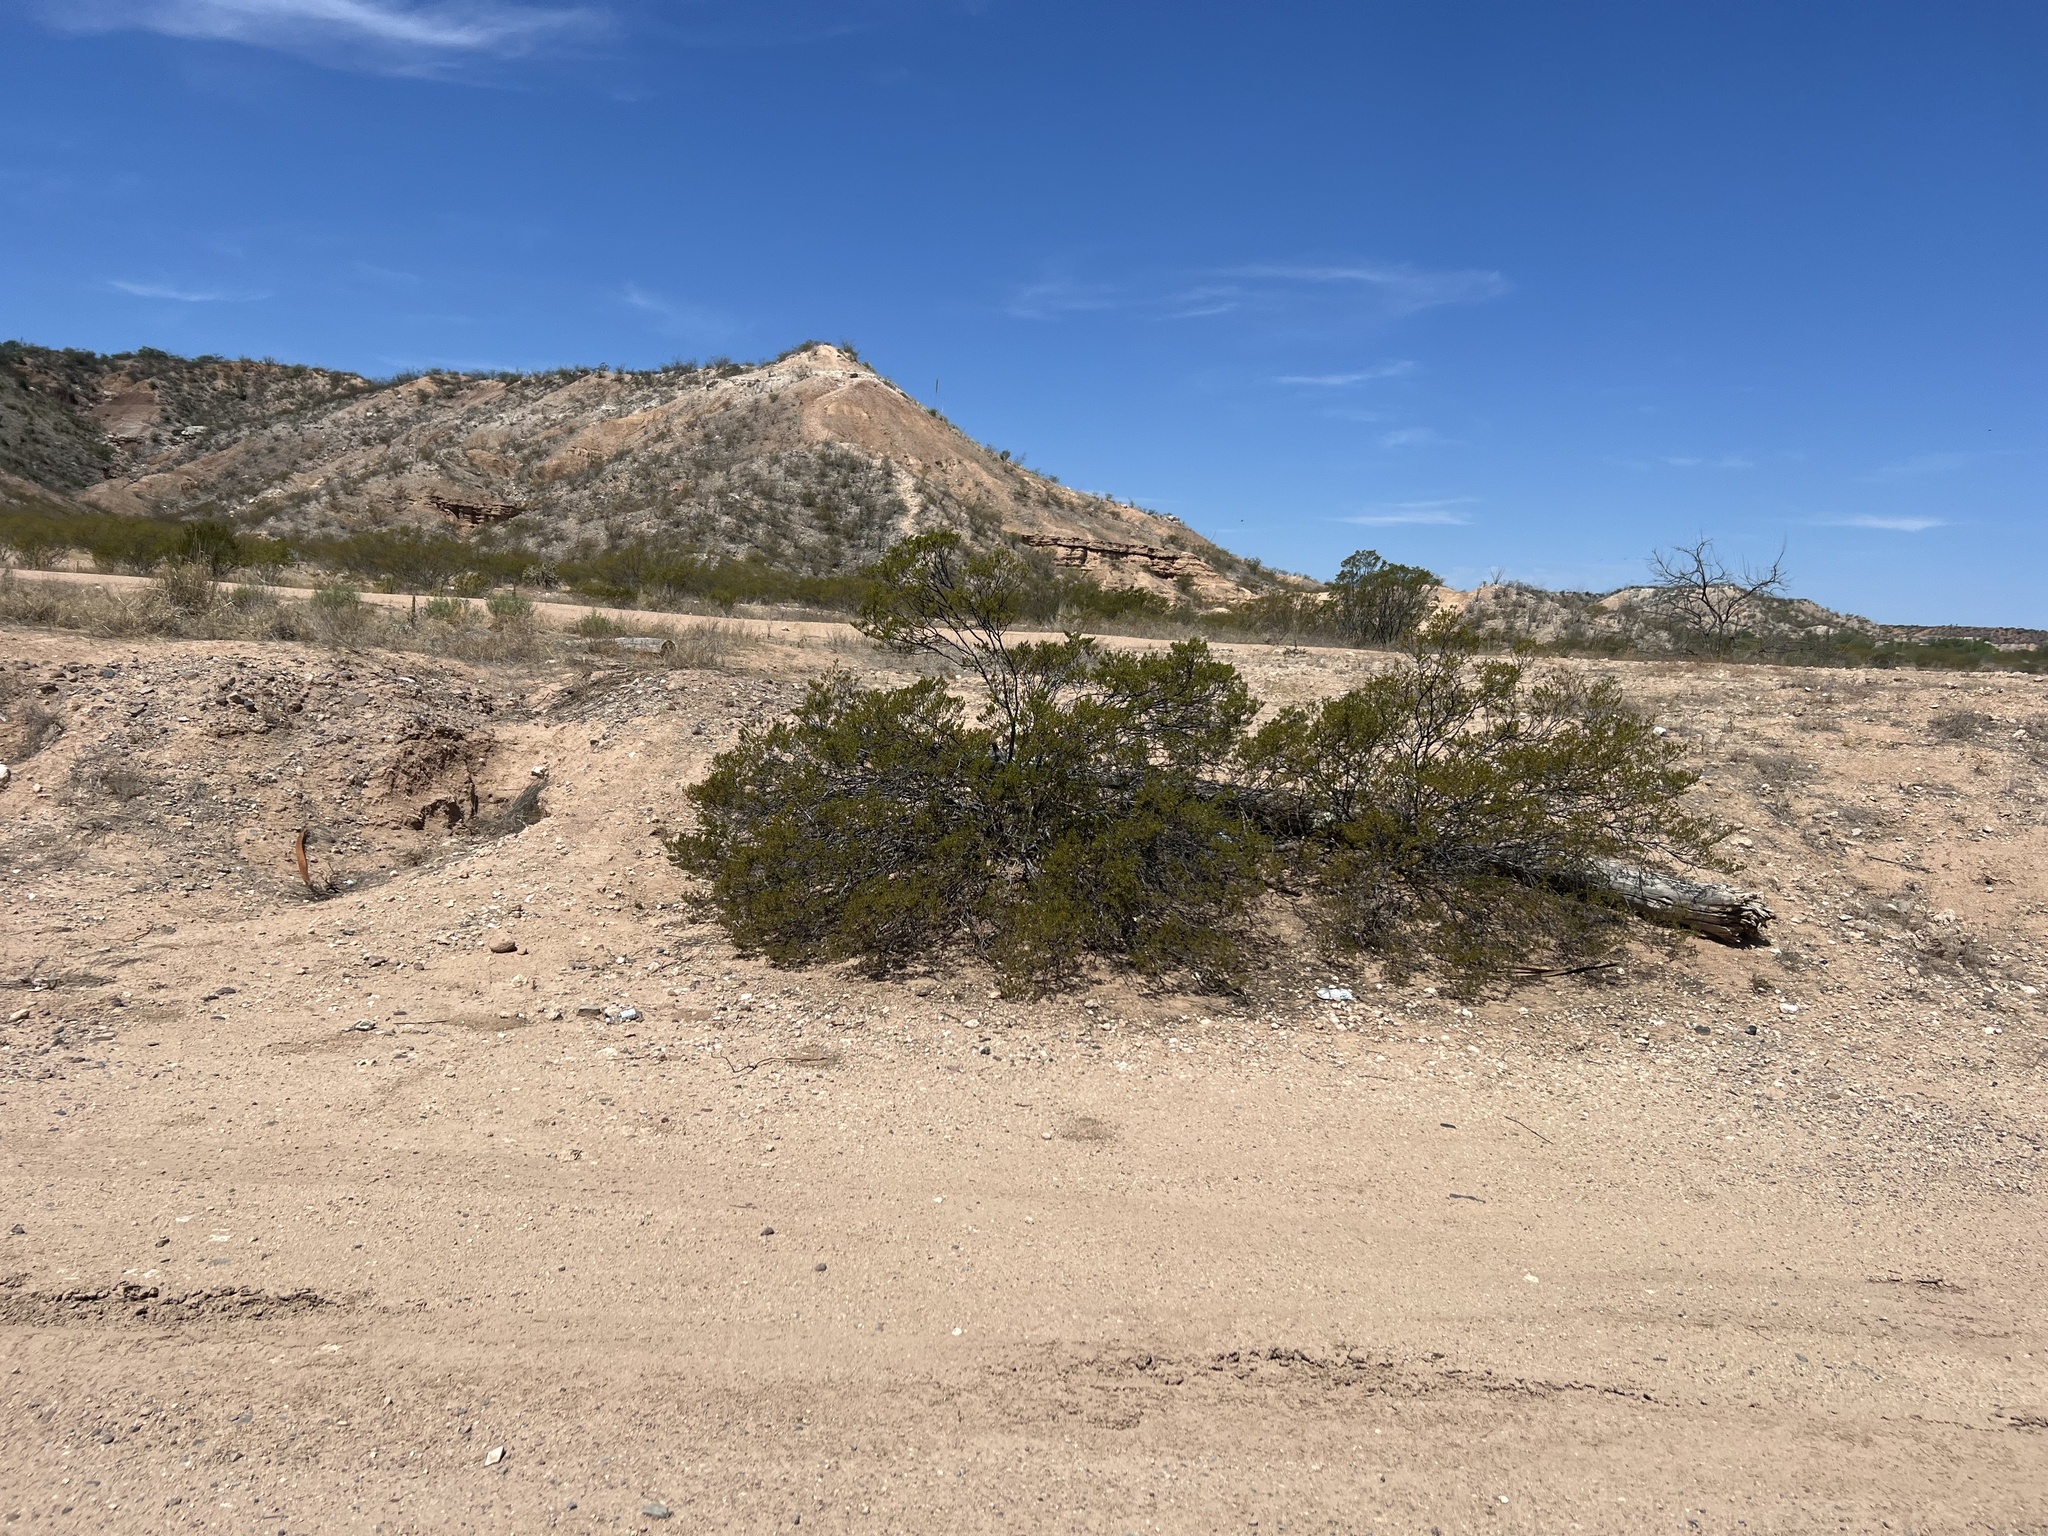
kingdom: Plantae
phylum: Tracheophyta
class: Magnoliopsida
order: Zygophyllales
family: Zygophyllaceae
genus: Larrea
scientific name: Larrea tridentata
